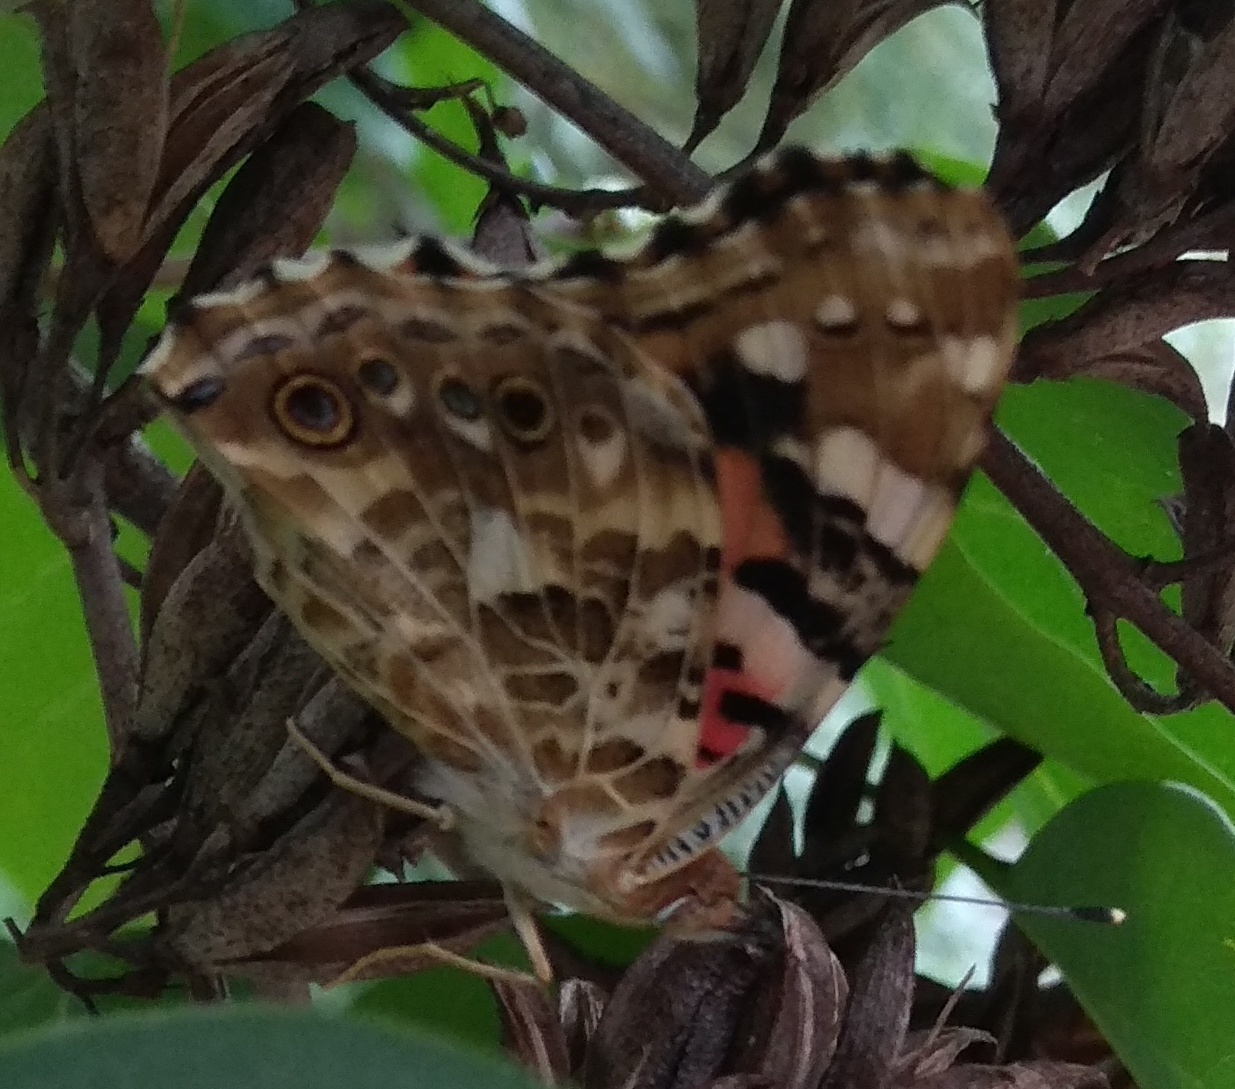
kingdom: Animalia
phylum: Arthropoda
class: Insecta
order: Lepidoptera
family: Nymphalidae
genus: Vanessa
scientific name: Vanessa cardui
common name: Painted lady
